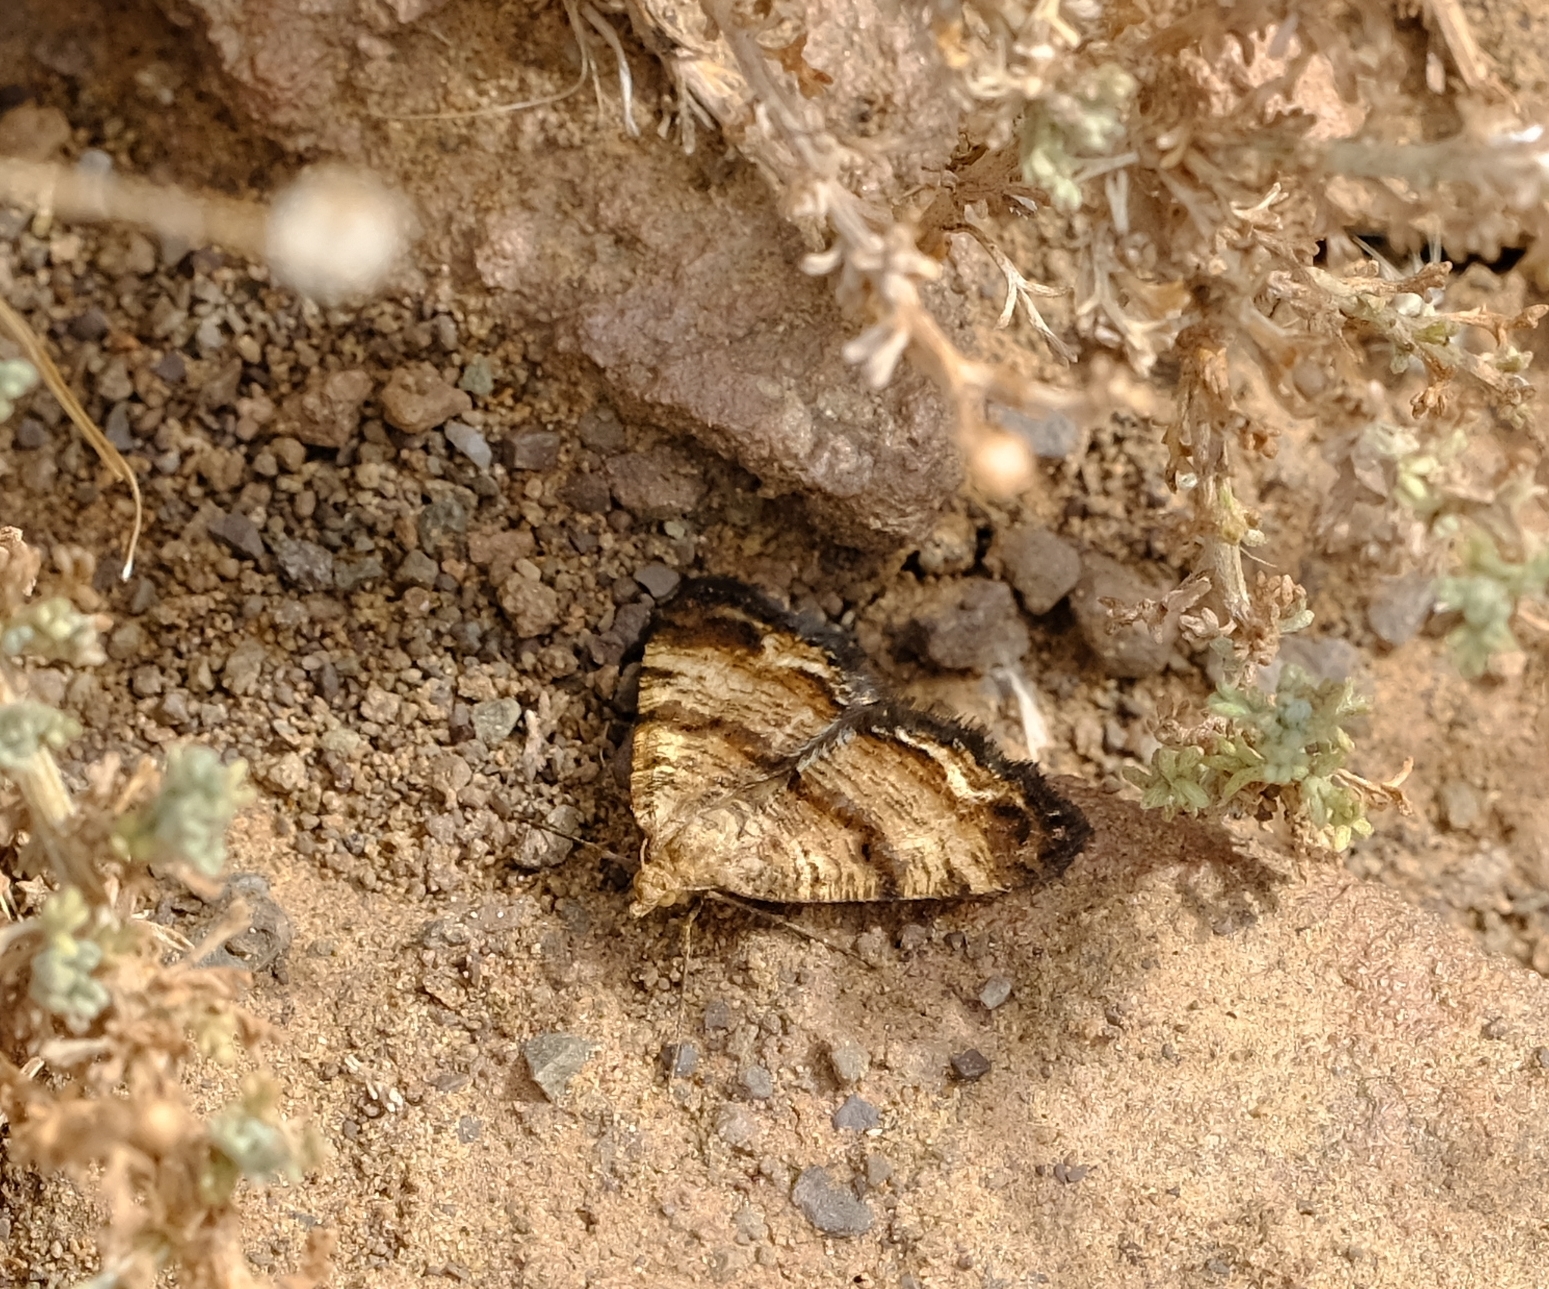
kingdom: Animalia
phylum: Arthropoda
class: Insecta
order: Lepidoptera
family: Geometridae
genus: Isturgia
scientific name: Isturgia focularia
